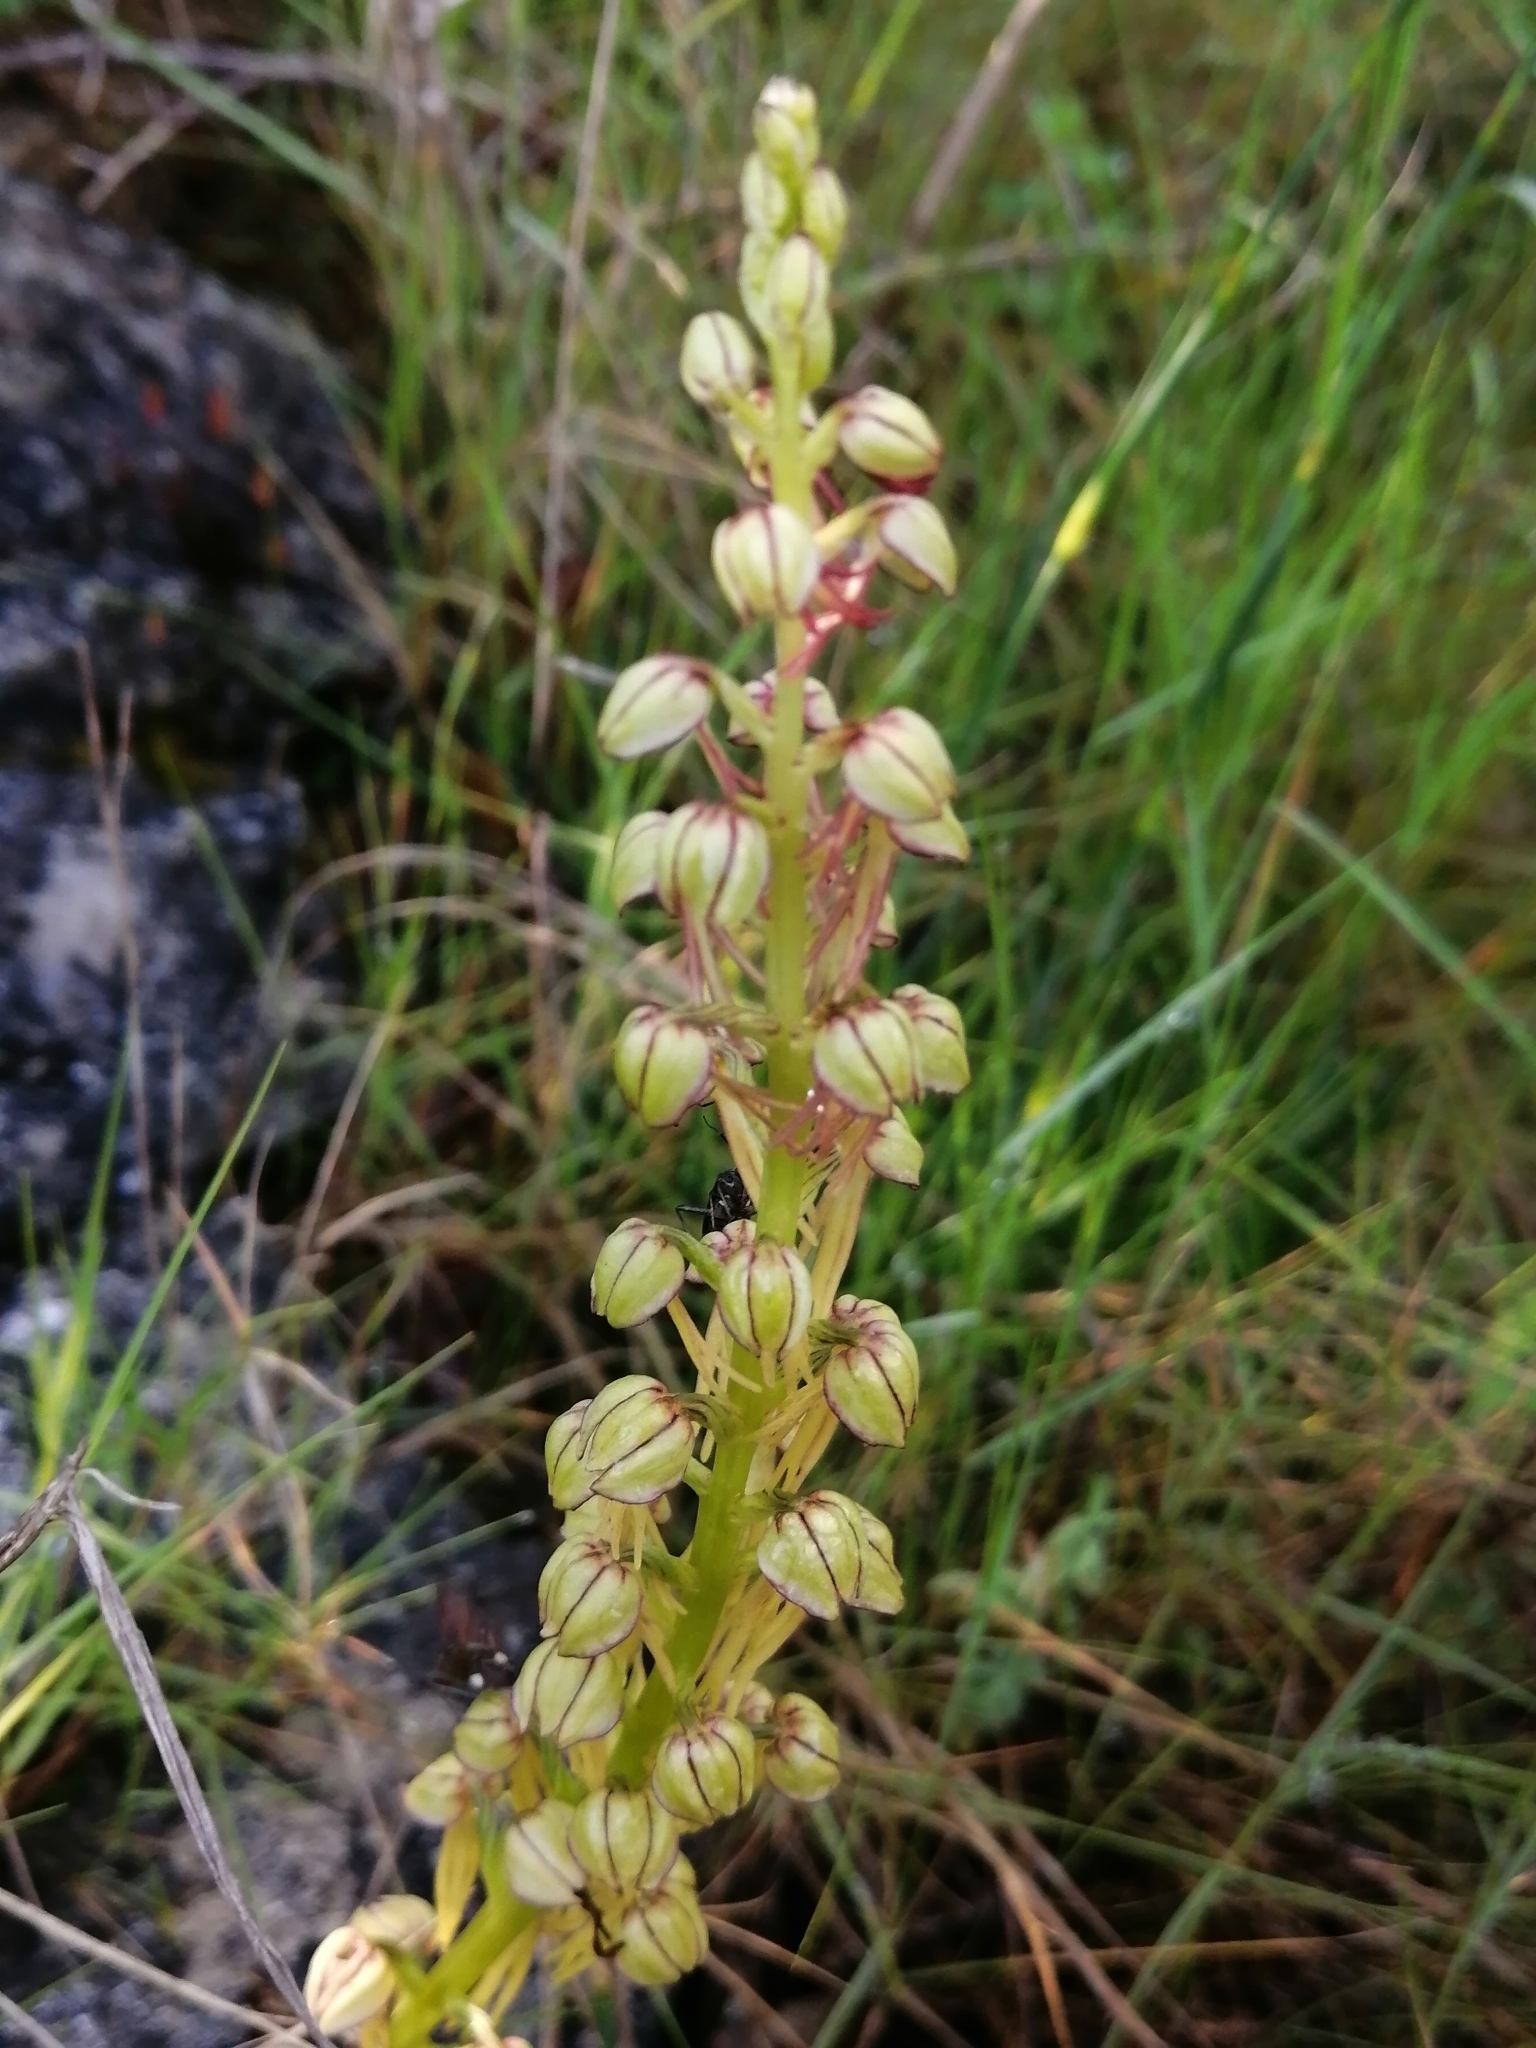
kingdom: Plantae
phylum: Tracheophyta
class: Liliopsida
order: Asparagales
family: Orchidaceae
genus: Orchis
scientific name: Orchis anthropophora
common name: Man orchid
